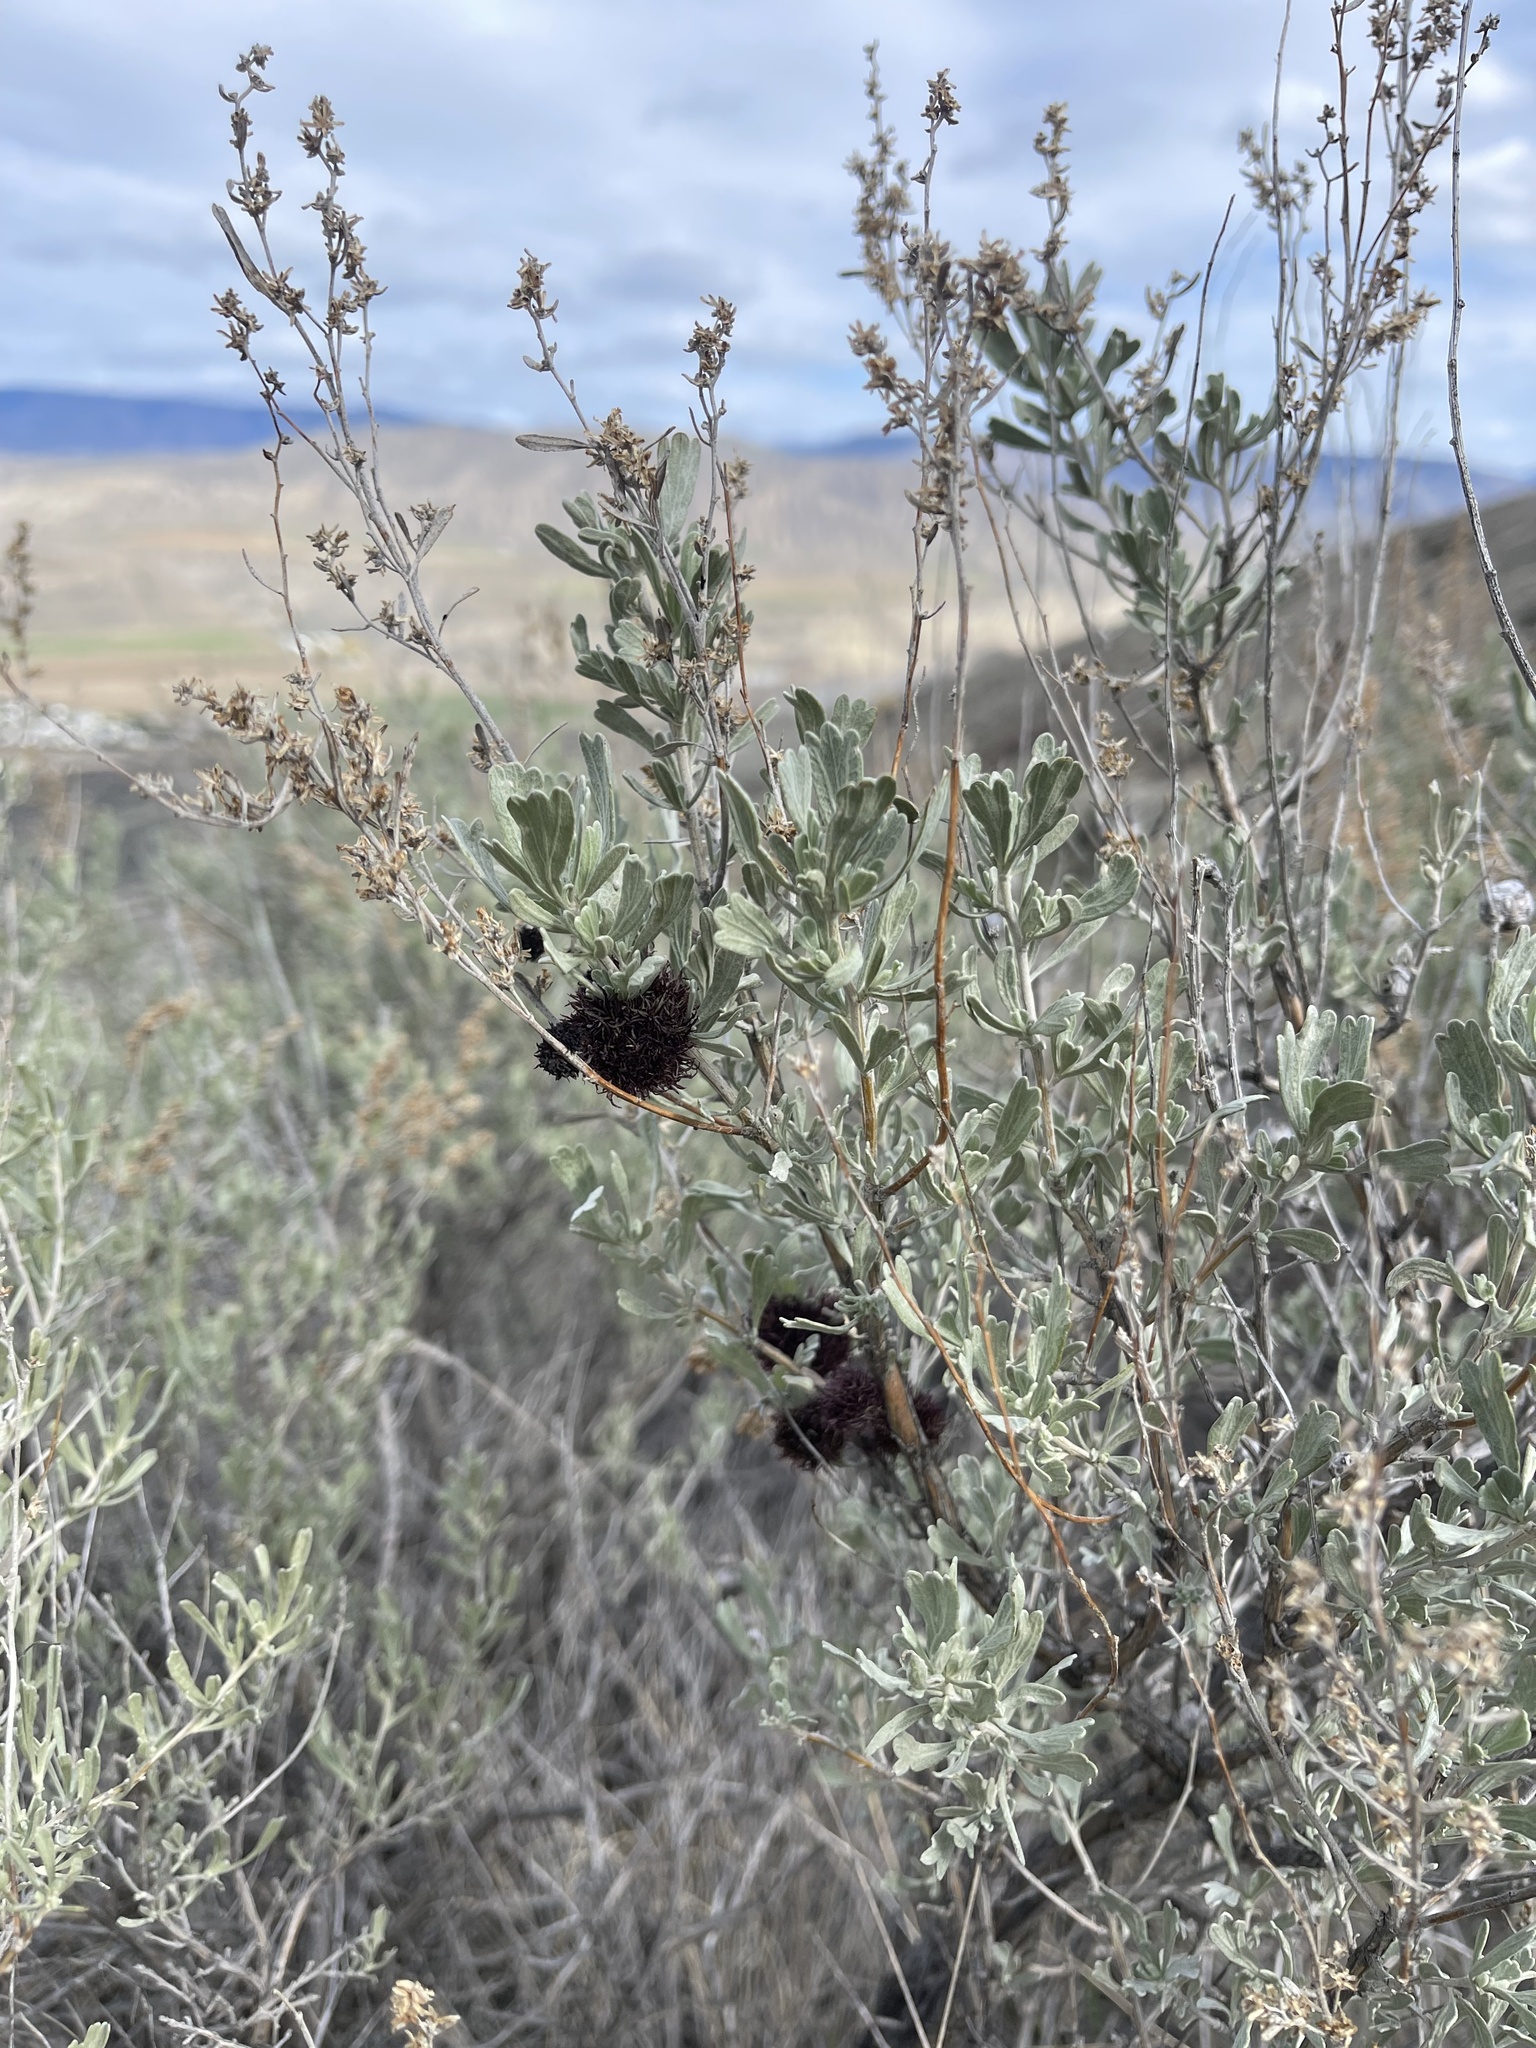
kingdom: Animalia
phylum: Arthropoda
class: Insecta
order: Diptera
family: Cecidomyiidae
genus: Rhopalomyia
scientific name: Rhopalomyia medusa
